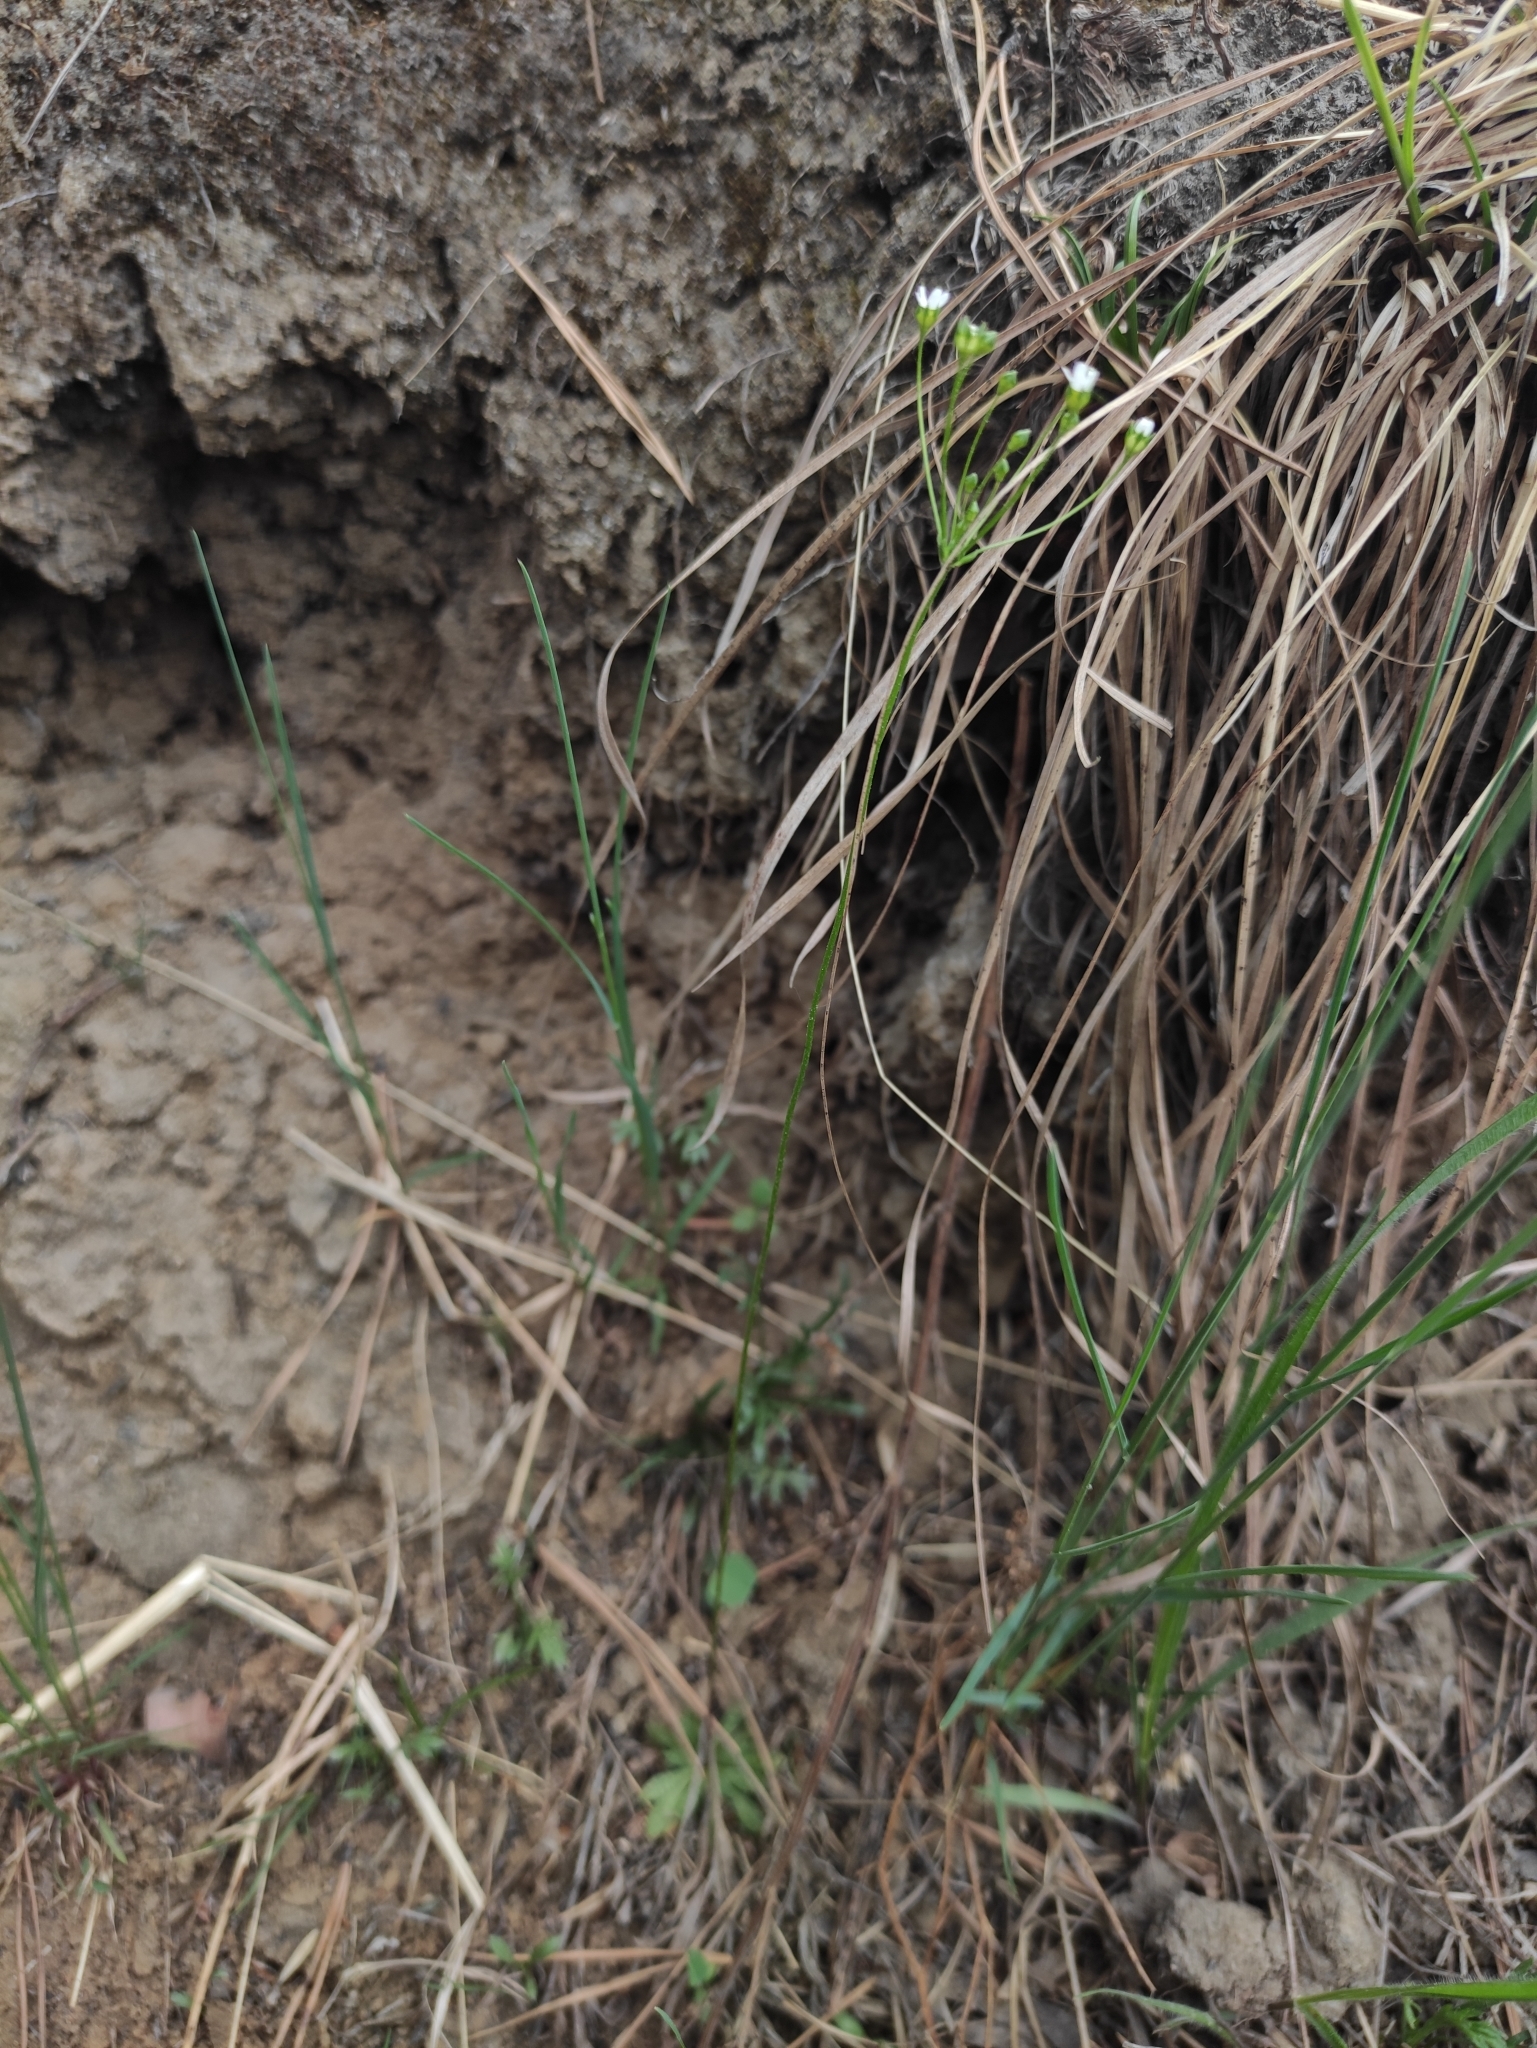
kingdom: Plantae
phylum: Tracheophyta
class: Magnoliopsida
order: Ericales
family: Primulaceae
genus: Androsace
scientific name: Androsace septentrionalis
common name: Hairy northern fairy-candelabra
